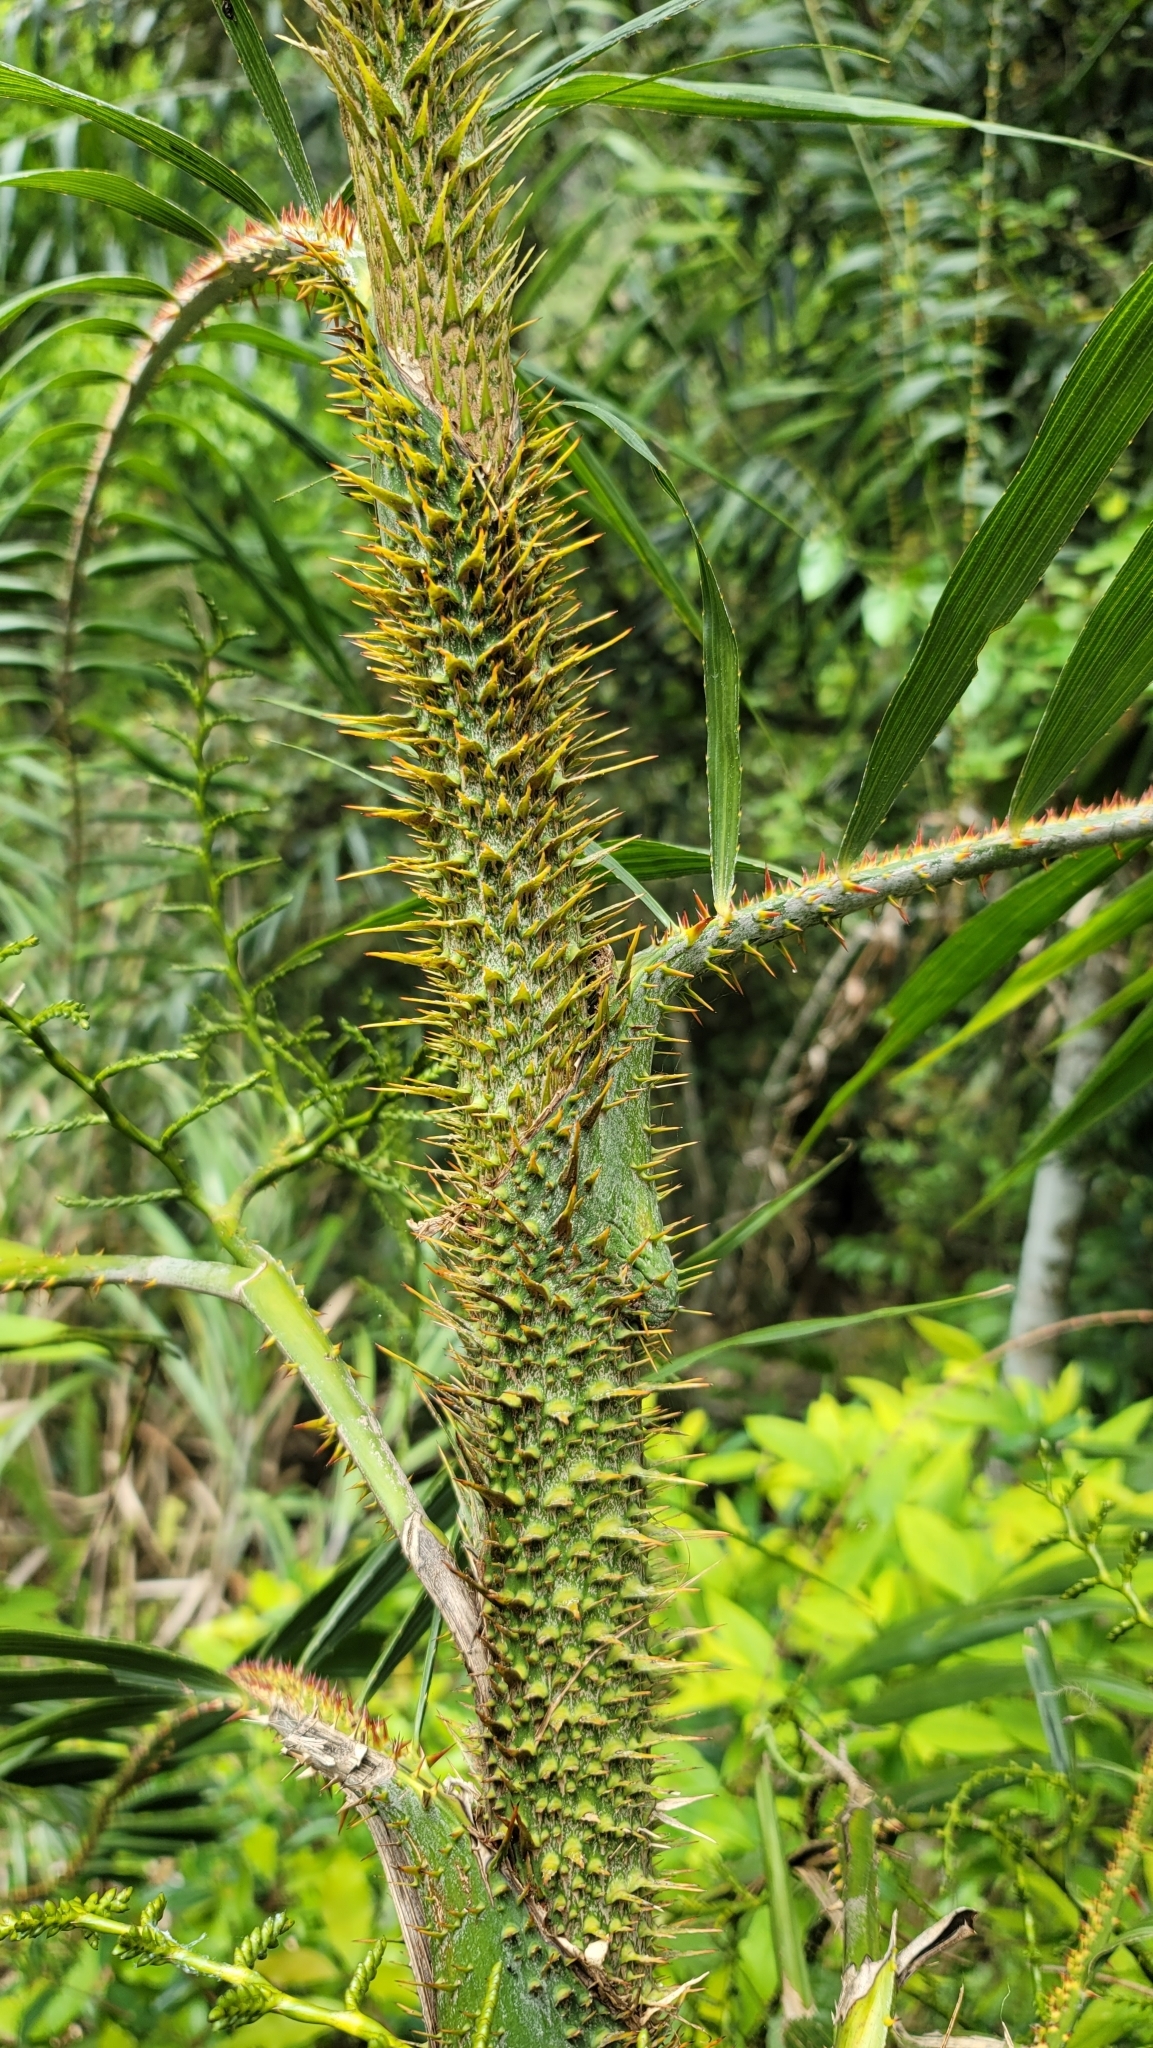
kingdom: Plantae
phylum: Tracheophyta
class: Liliopsida
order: Arecales
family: Arecaceae
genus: Calamus
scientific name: Calamus formosanus
